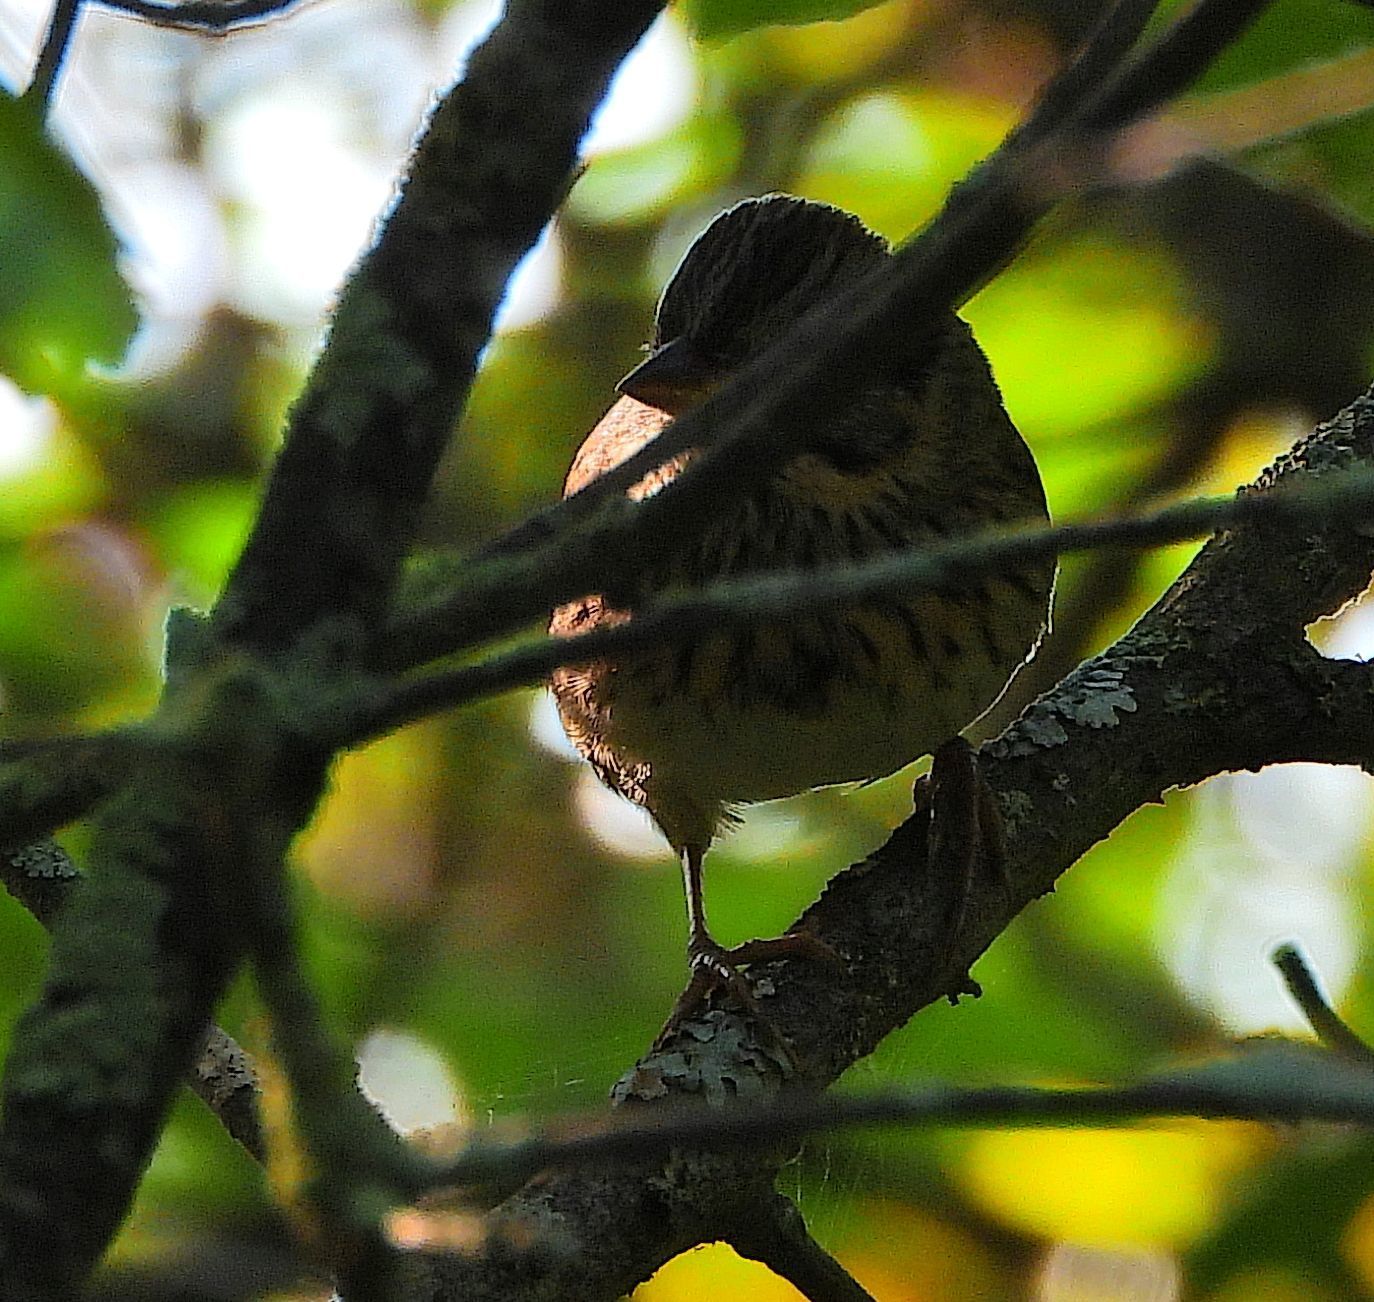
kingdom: Animalia
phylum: Chordata
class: Aves
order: Passeriformes
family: Passerellidae
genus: Melospiza
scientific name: Melospiza lincolnii
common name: Lincoln's sparrow
